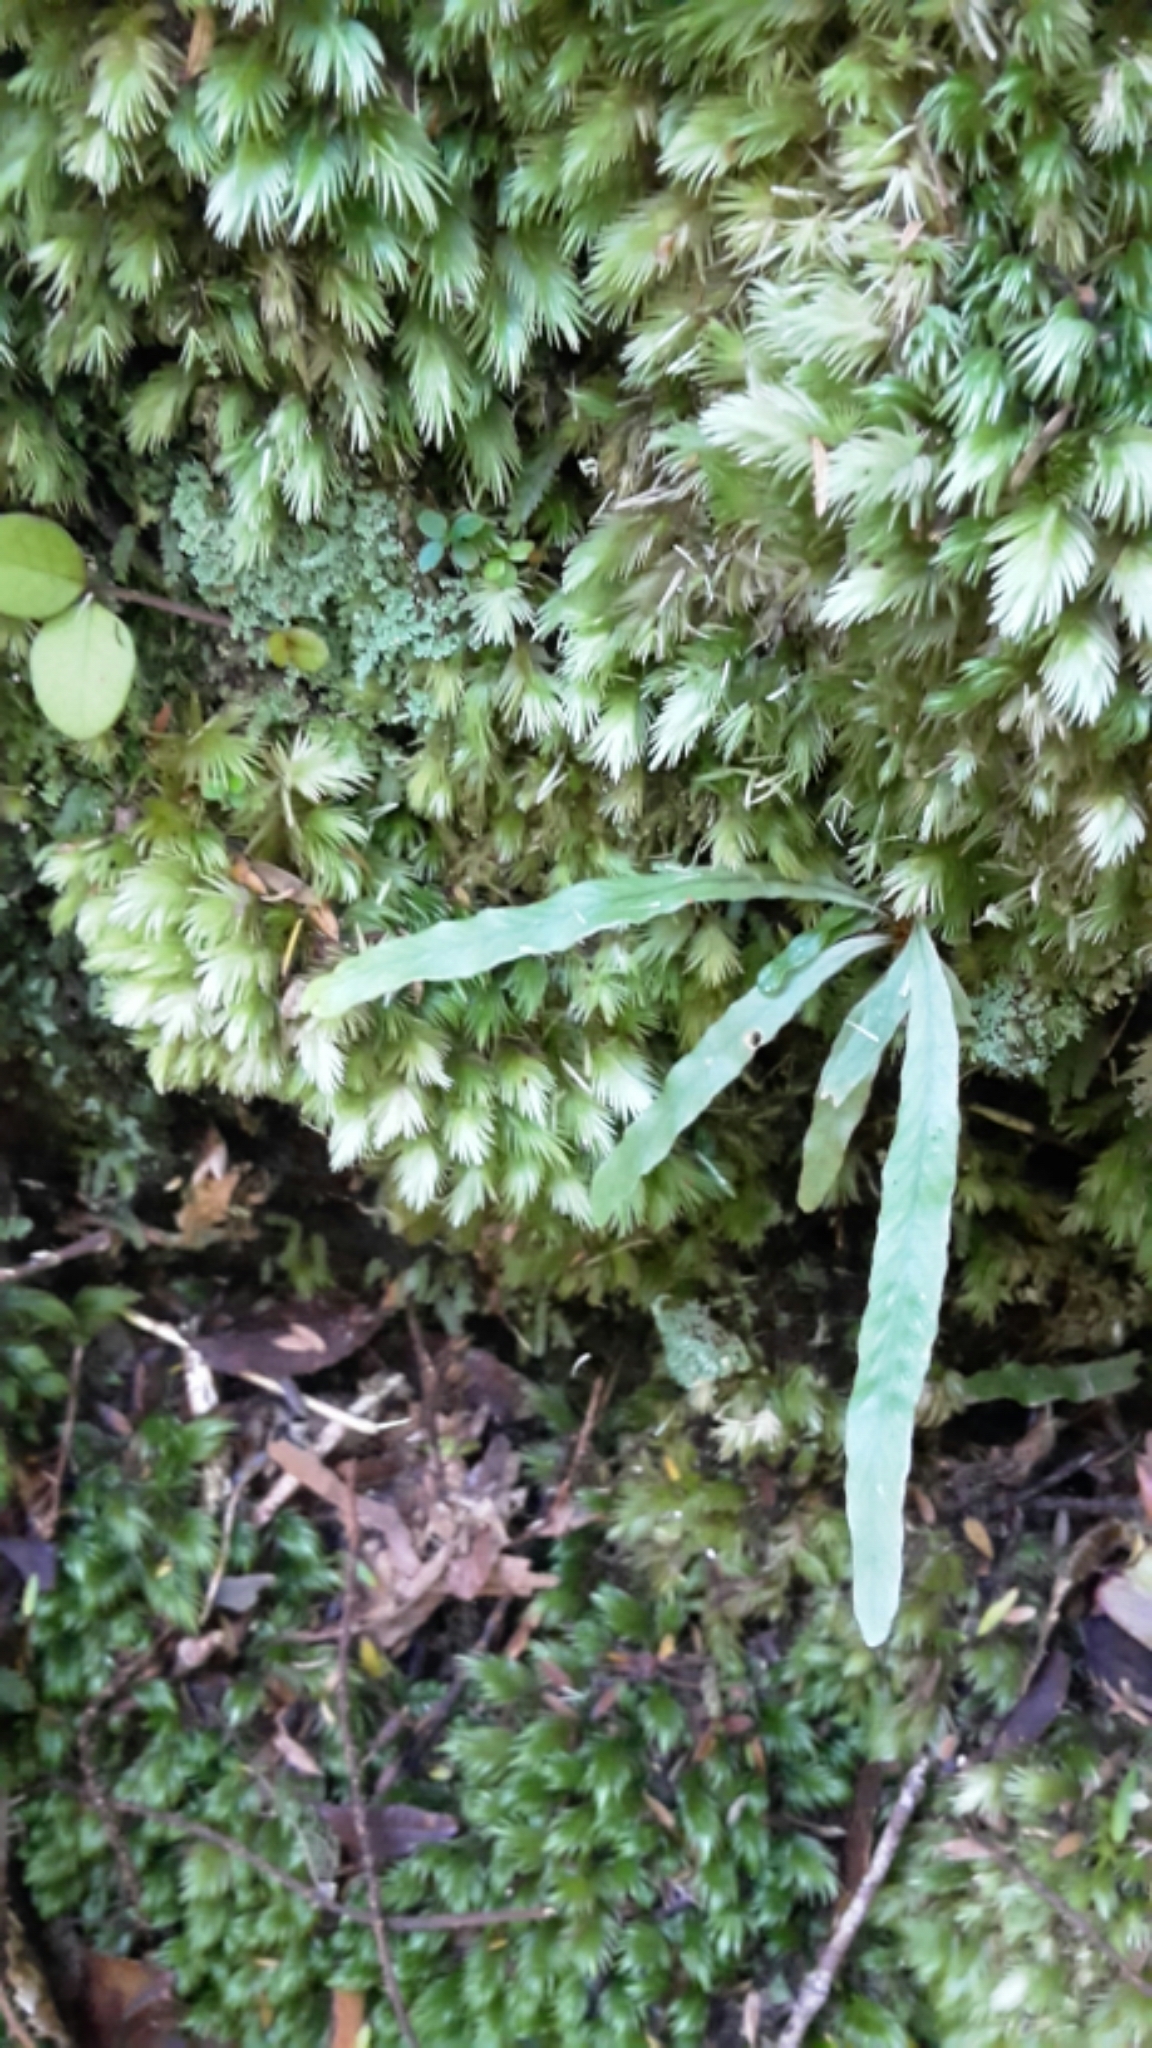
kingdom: Plantae
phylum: Tracheophyta
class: Polypodiopsida
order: Polypodiales
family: Polypodiaceae
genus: Notogrammitis
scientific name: Notogrammitis billardierei
